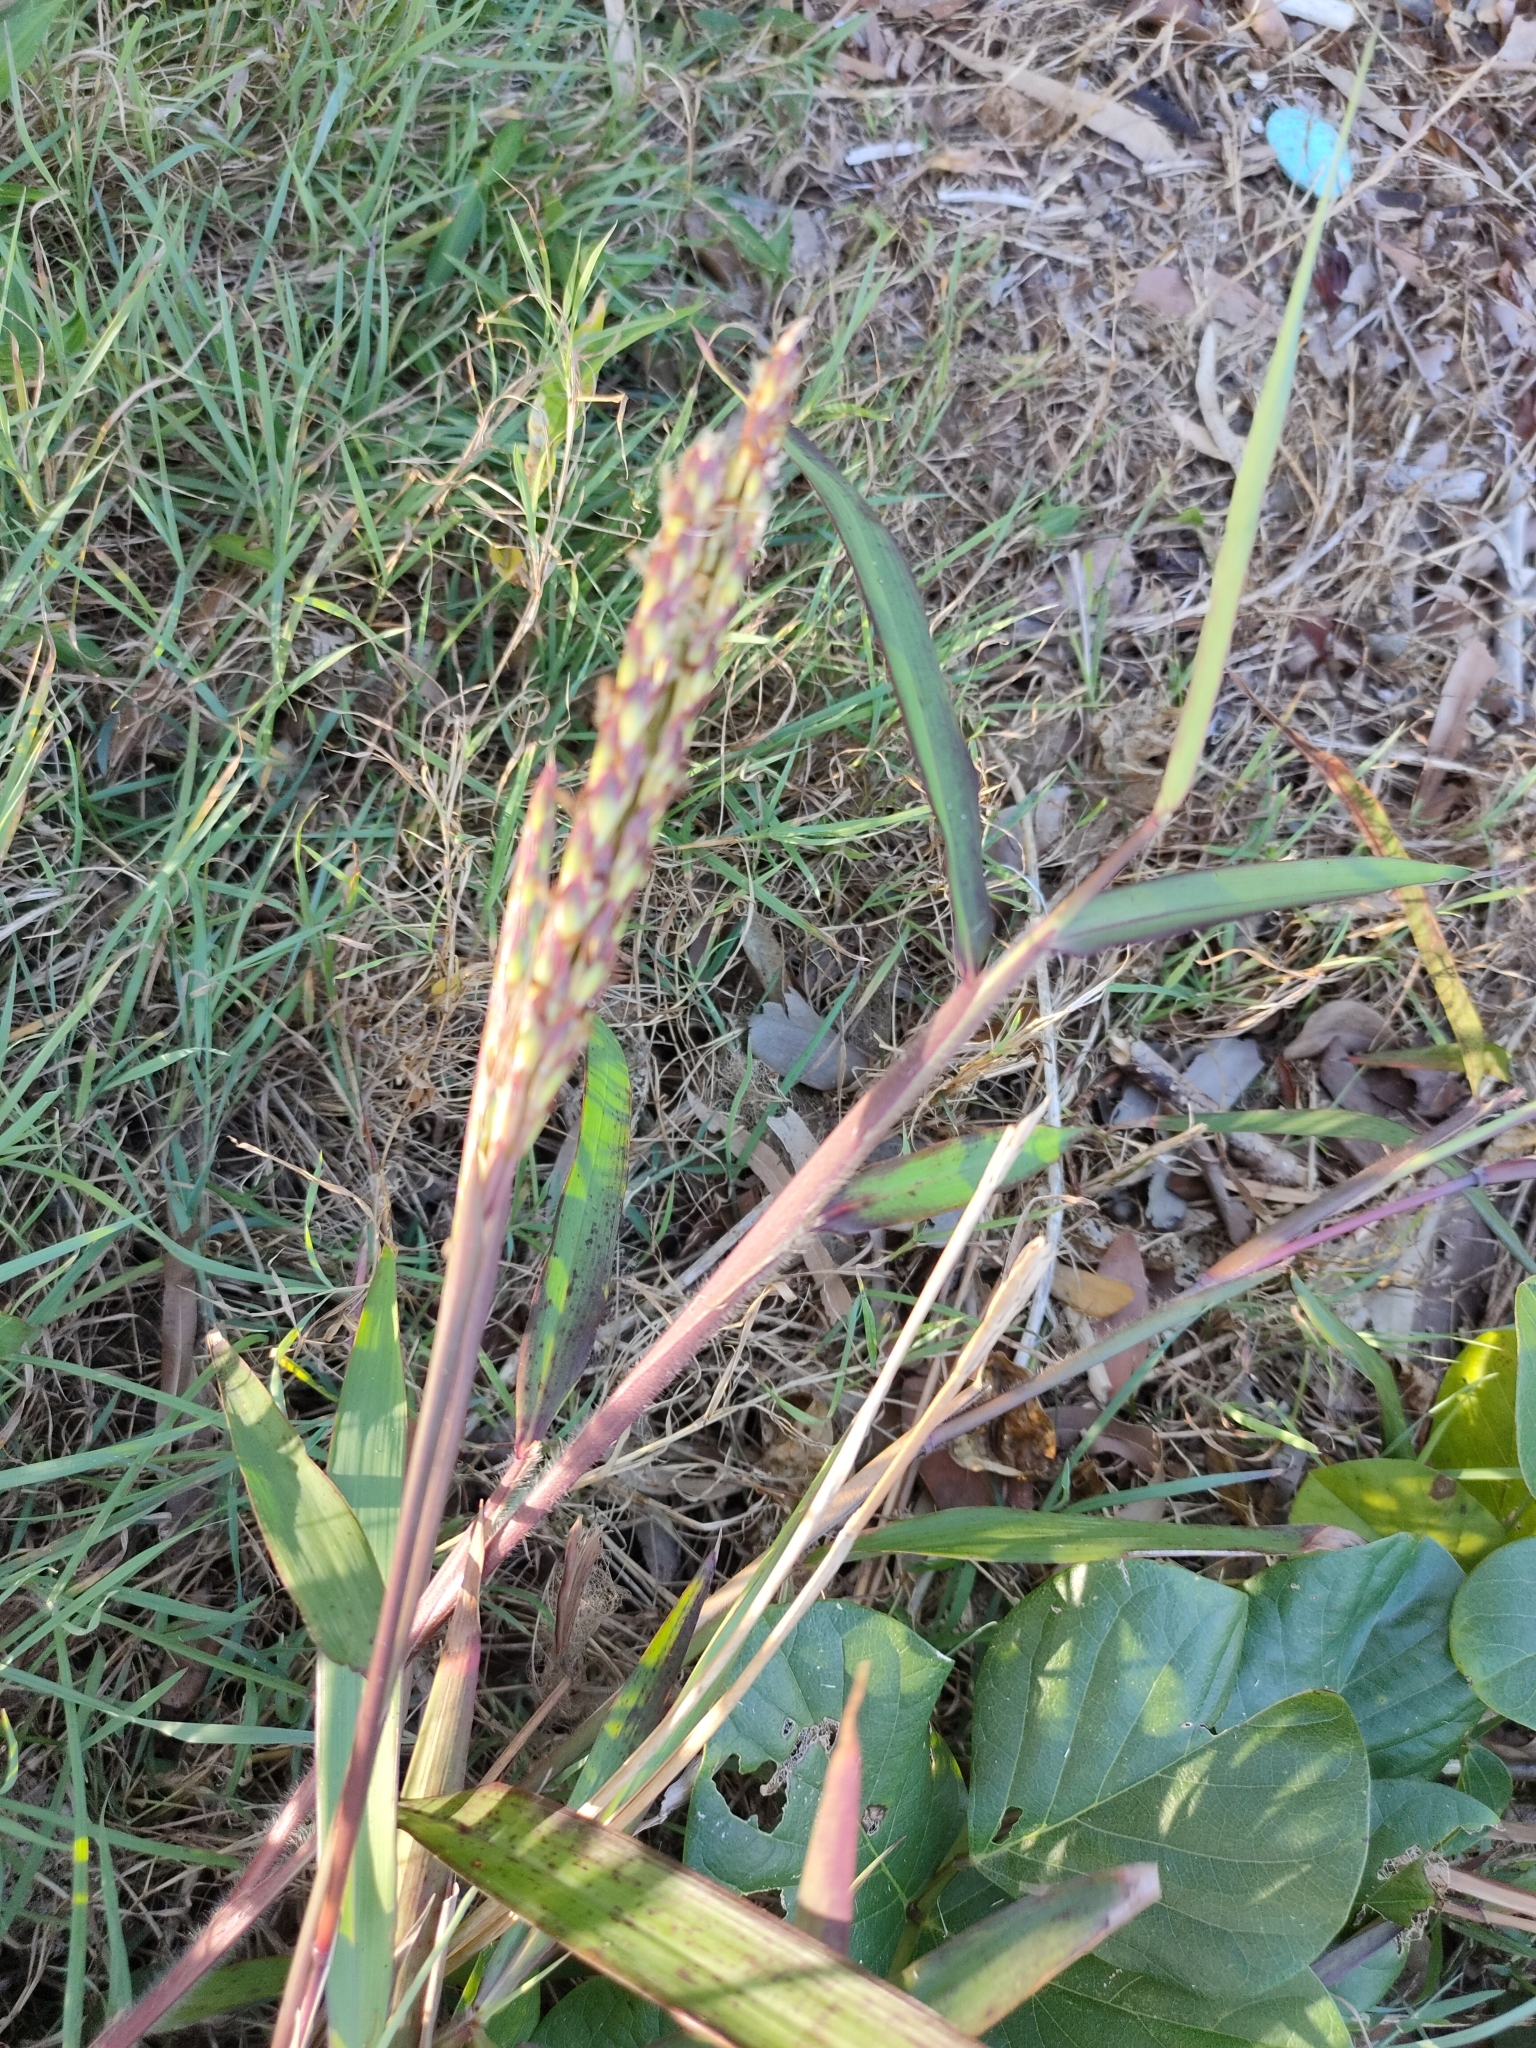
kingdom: Plantae
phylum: Tracheophyta
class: Liliopsida
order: Poales
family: Poaceae
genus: Ischaemum
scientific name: Ischaemum triticeum
